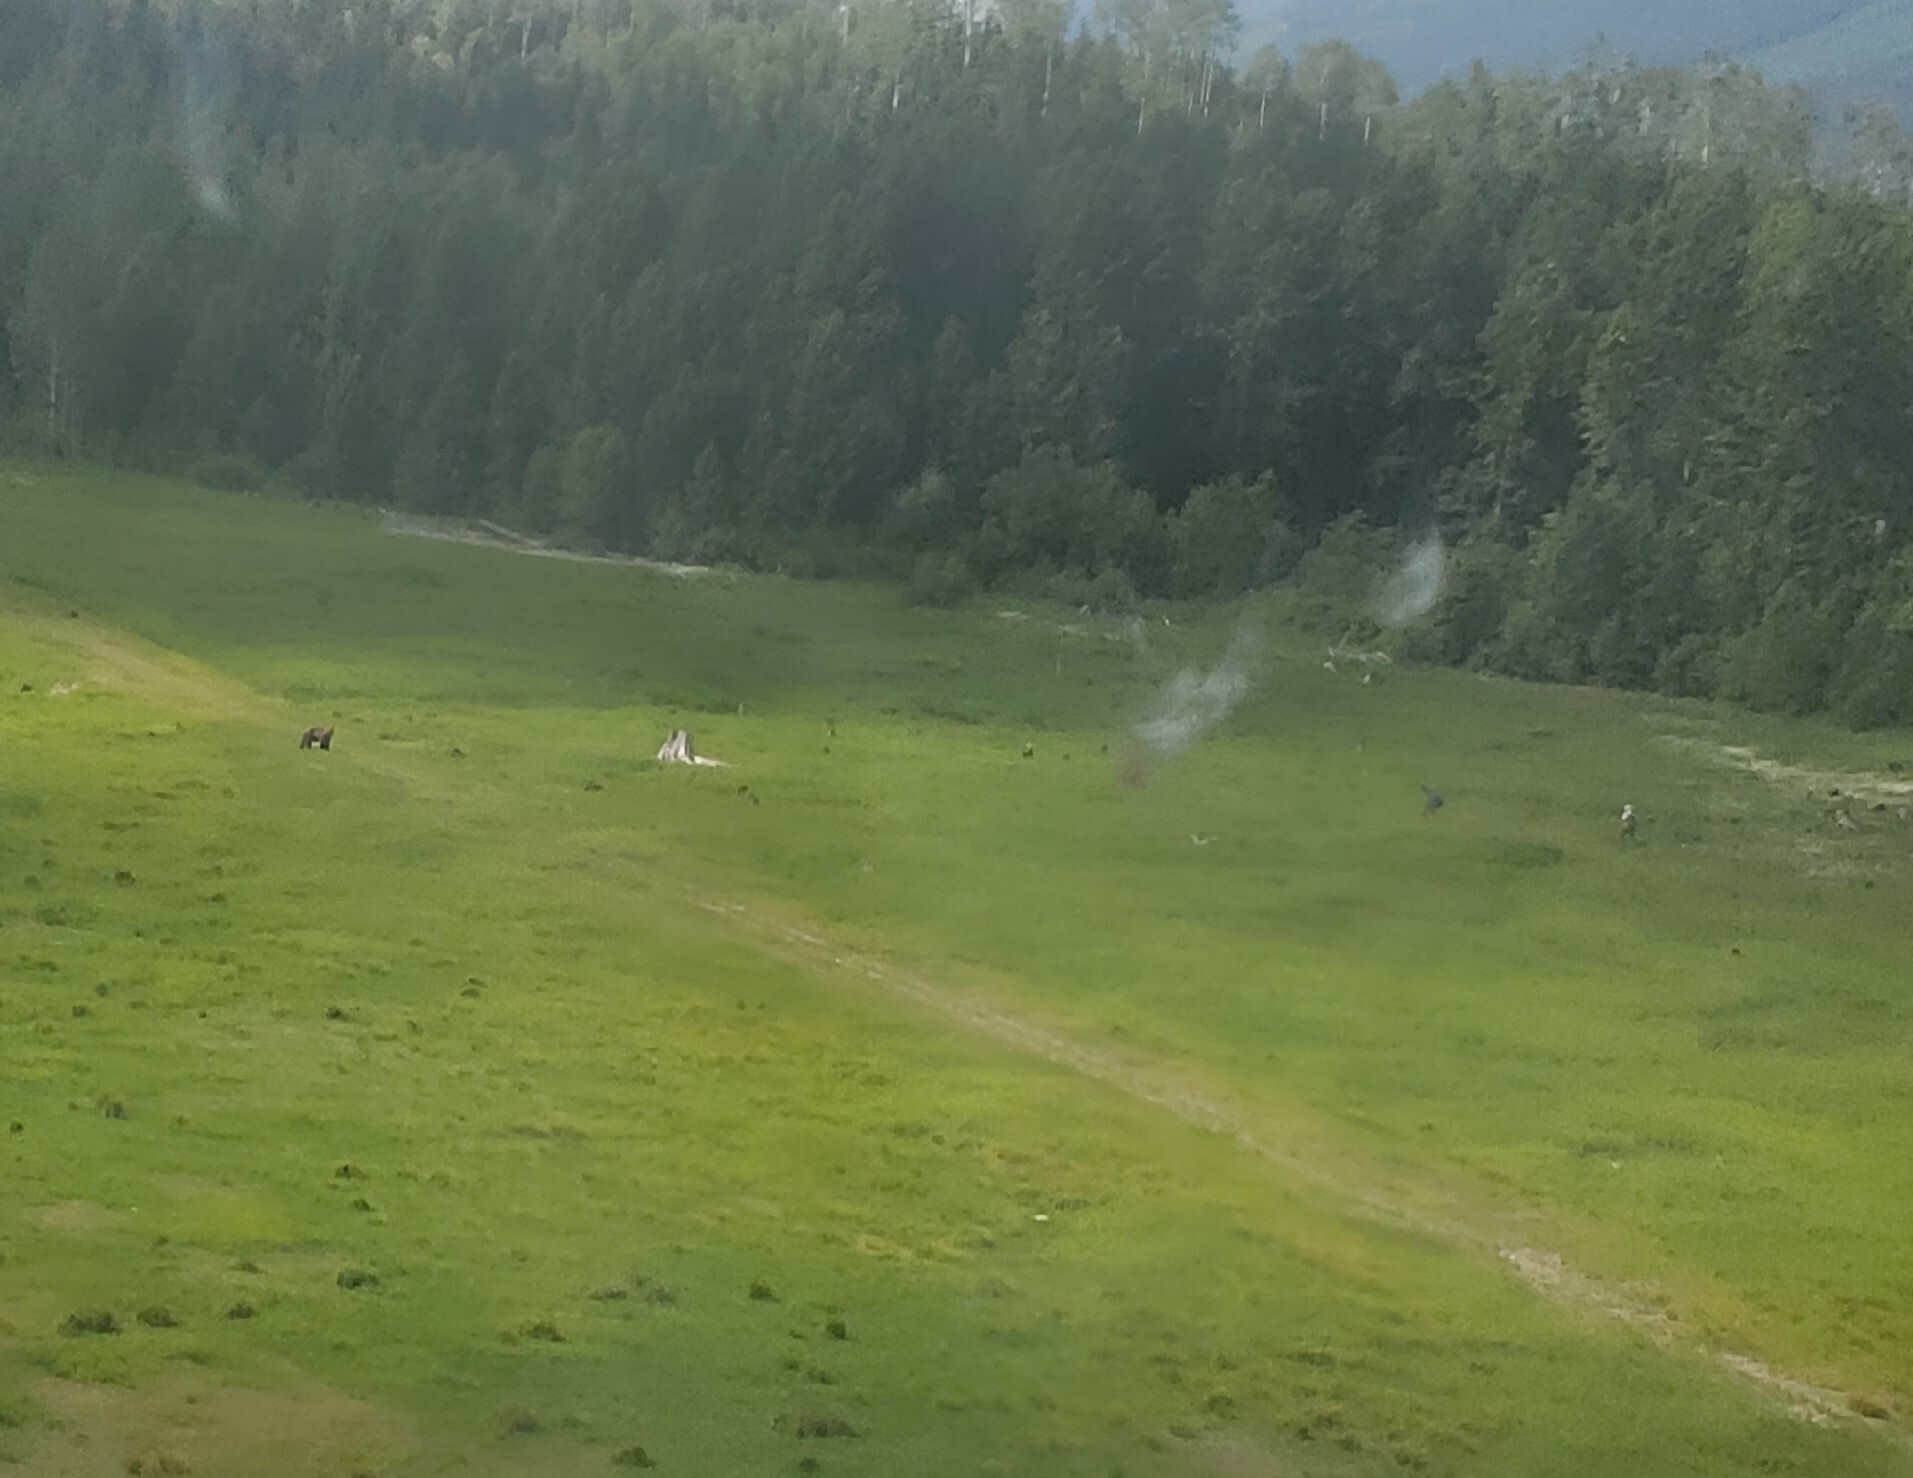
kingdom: Animalia
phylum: Chordata
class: Mammalia
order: Carnivora
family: Ursidae
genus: Ursus
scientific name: Ursus arctos
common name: Brown bear
